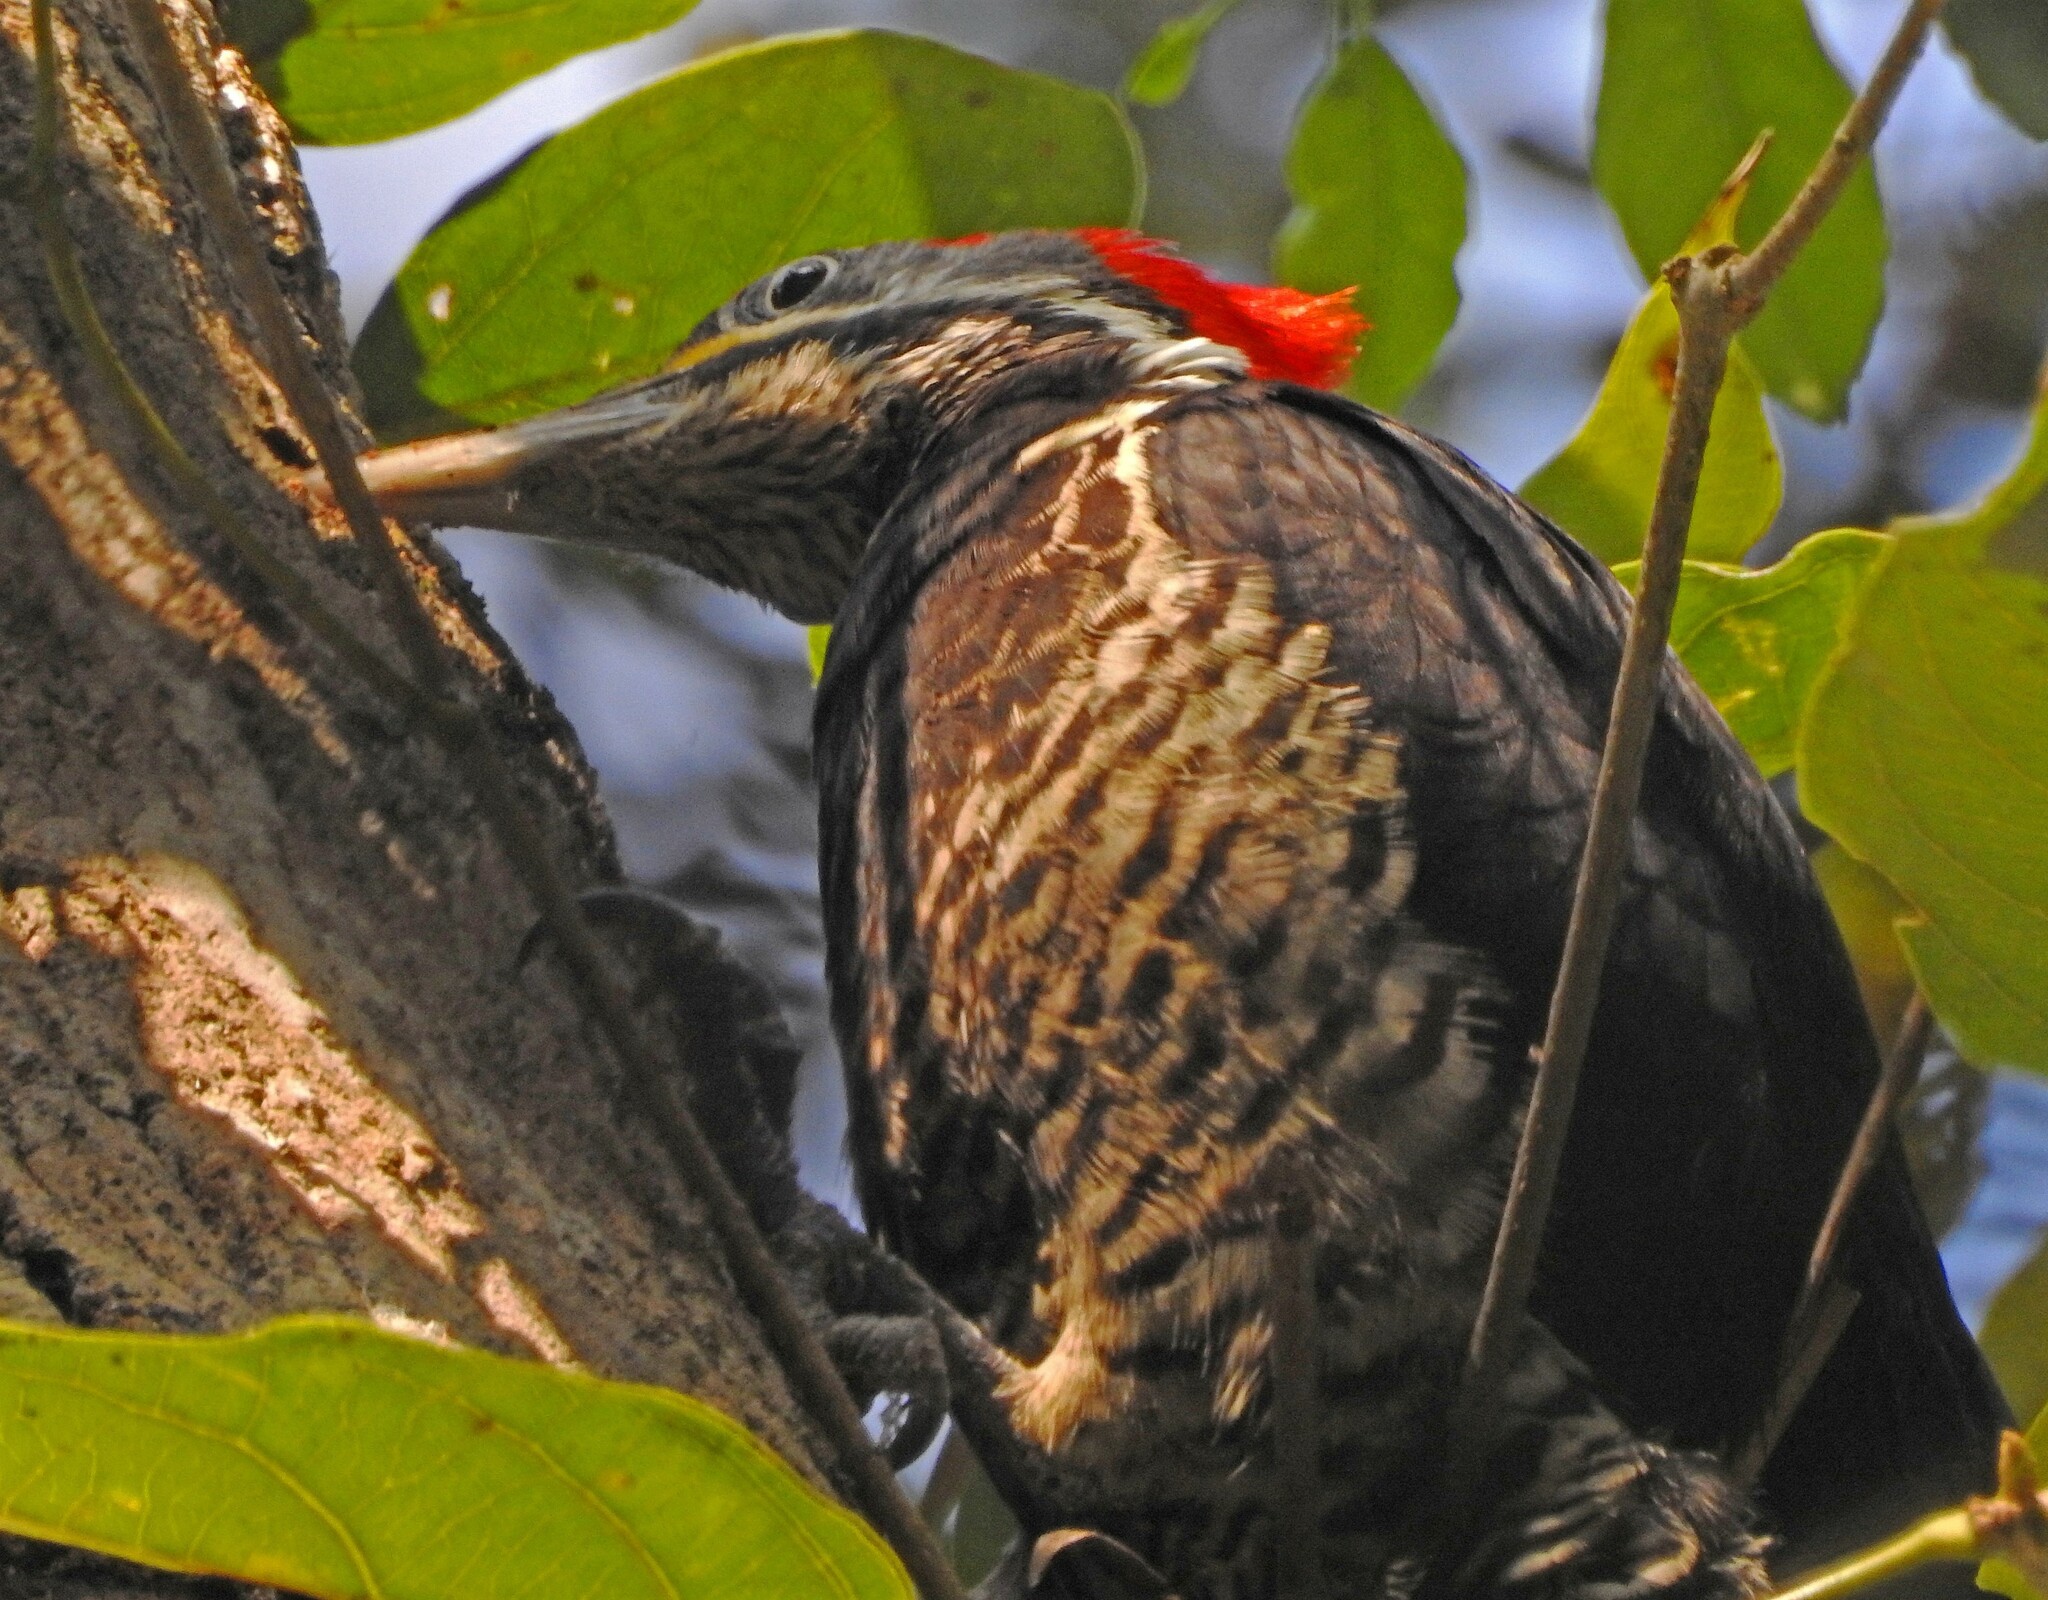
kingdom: Animalia
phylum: Chordata
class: Aves
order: Piciformes
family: Picidae
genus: Dryocopus
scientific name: Dryocopus lineatus
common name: Lineated woodpecker
